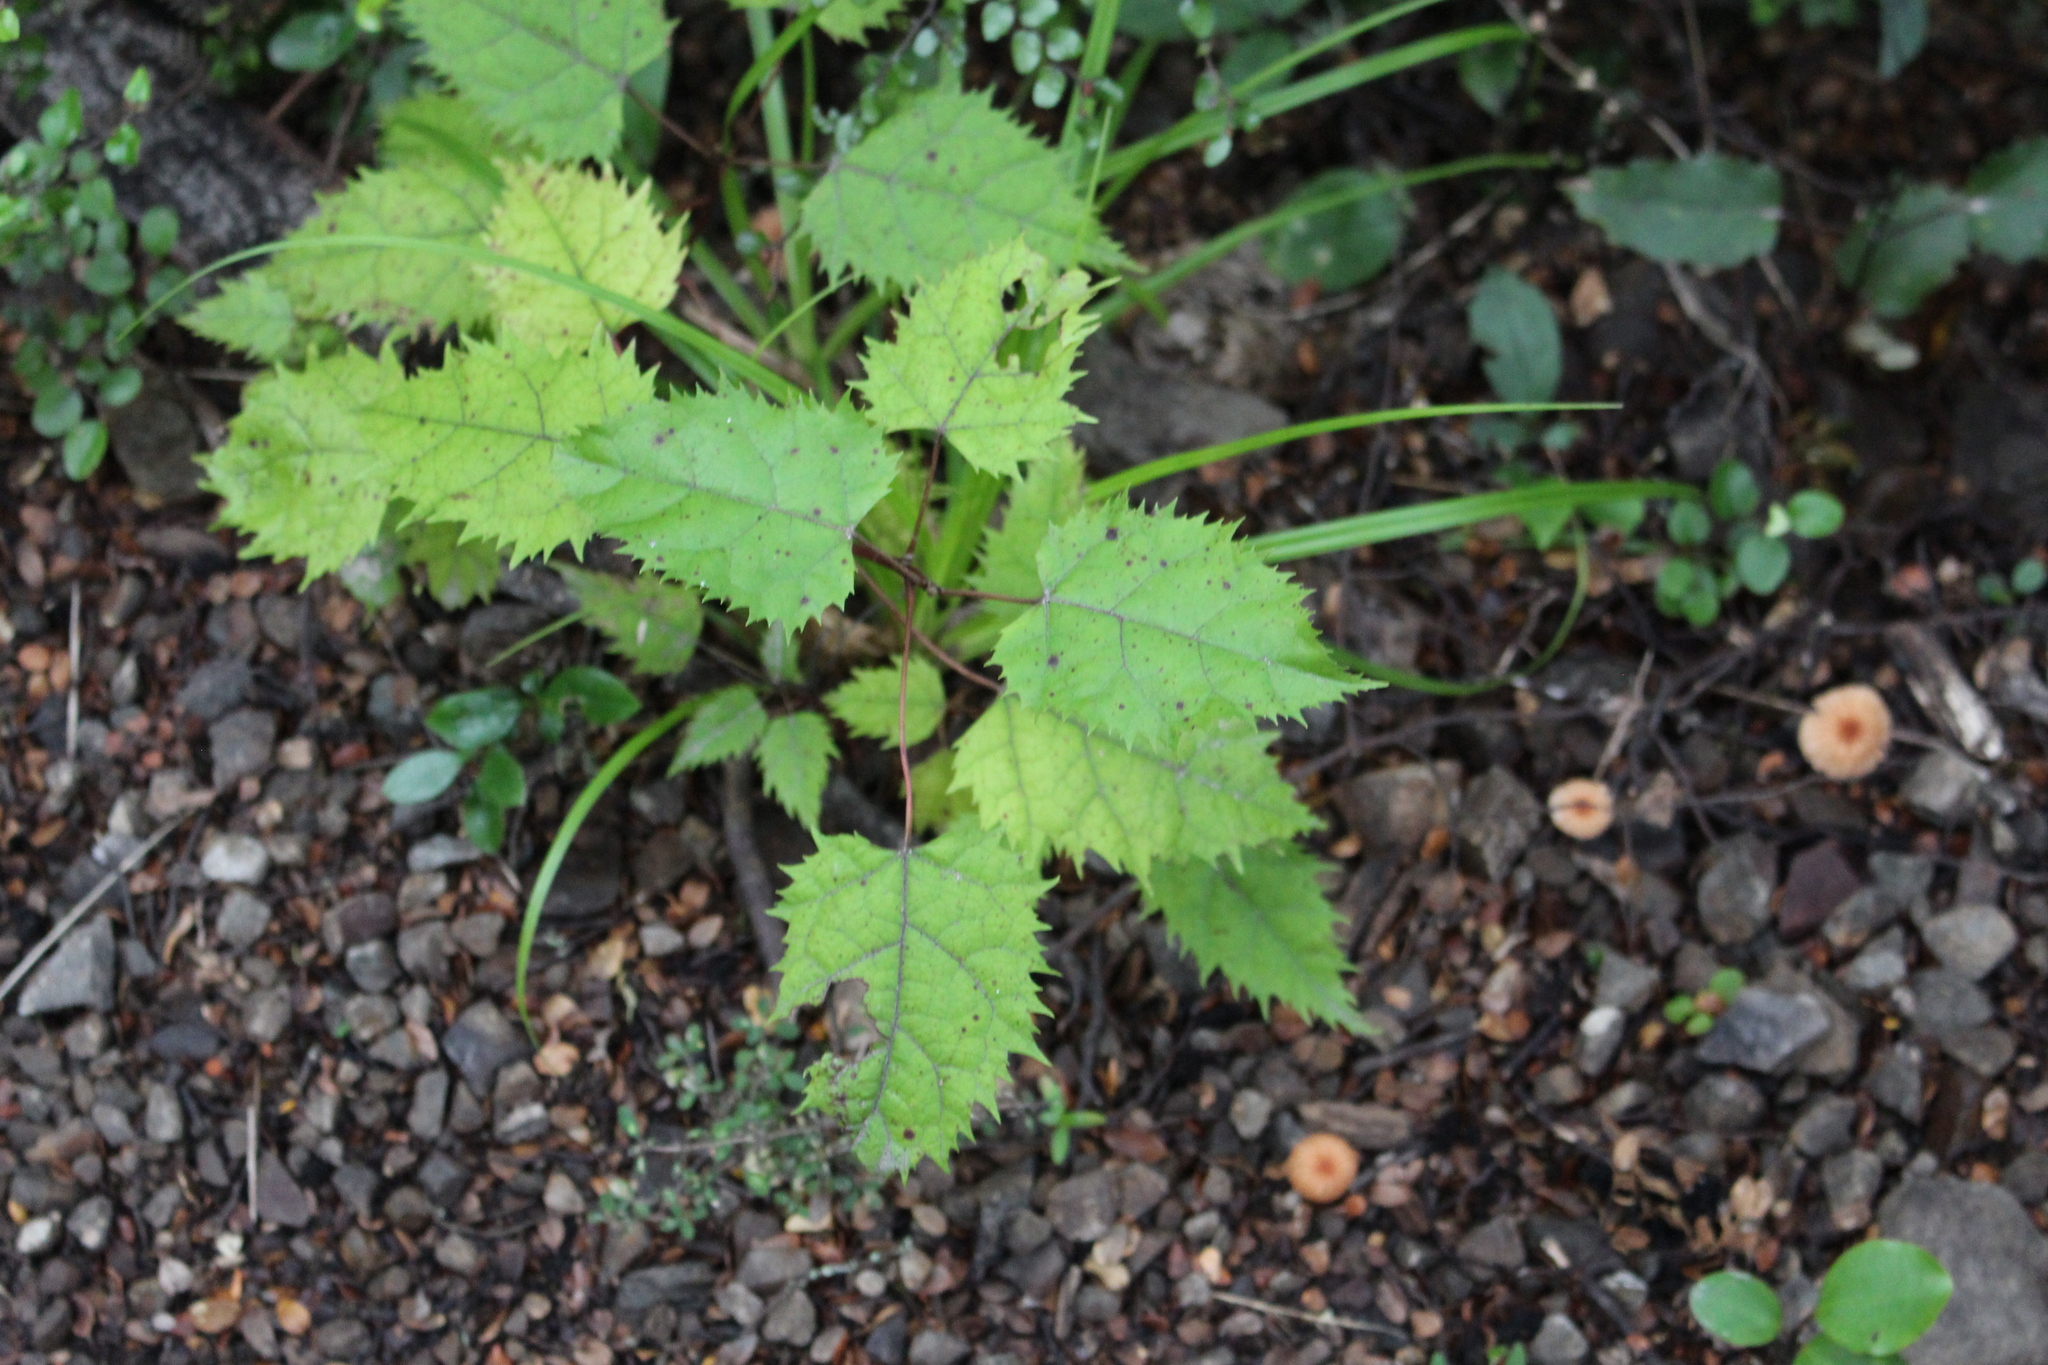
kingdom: Plantae
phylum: Tracheophyta
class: Magnoliopsida
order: Oxalidales
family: Elaeocarpaceae
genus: Aristotelia
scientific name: Aristotelia serrata
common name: New zealand wineberry
